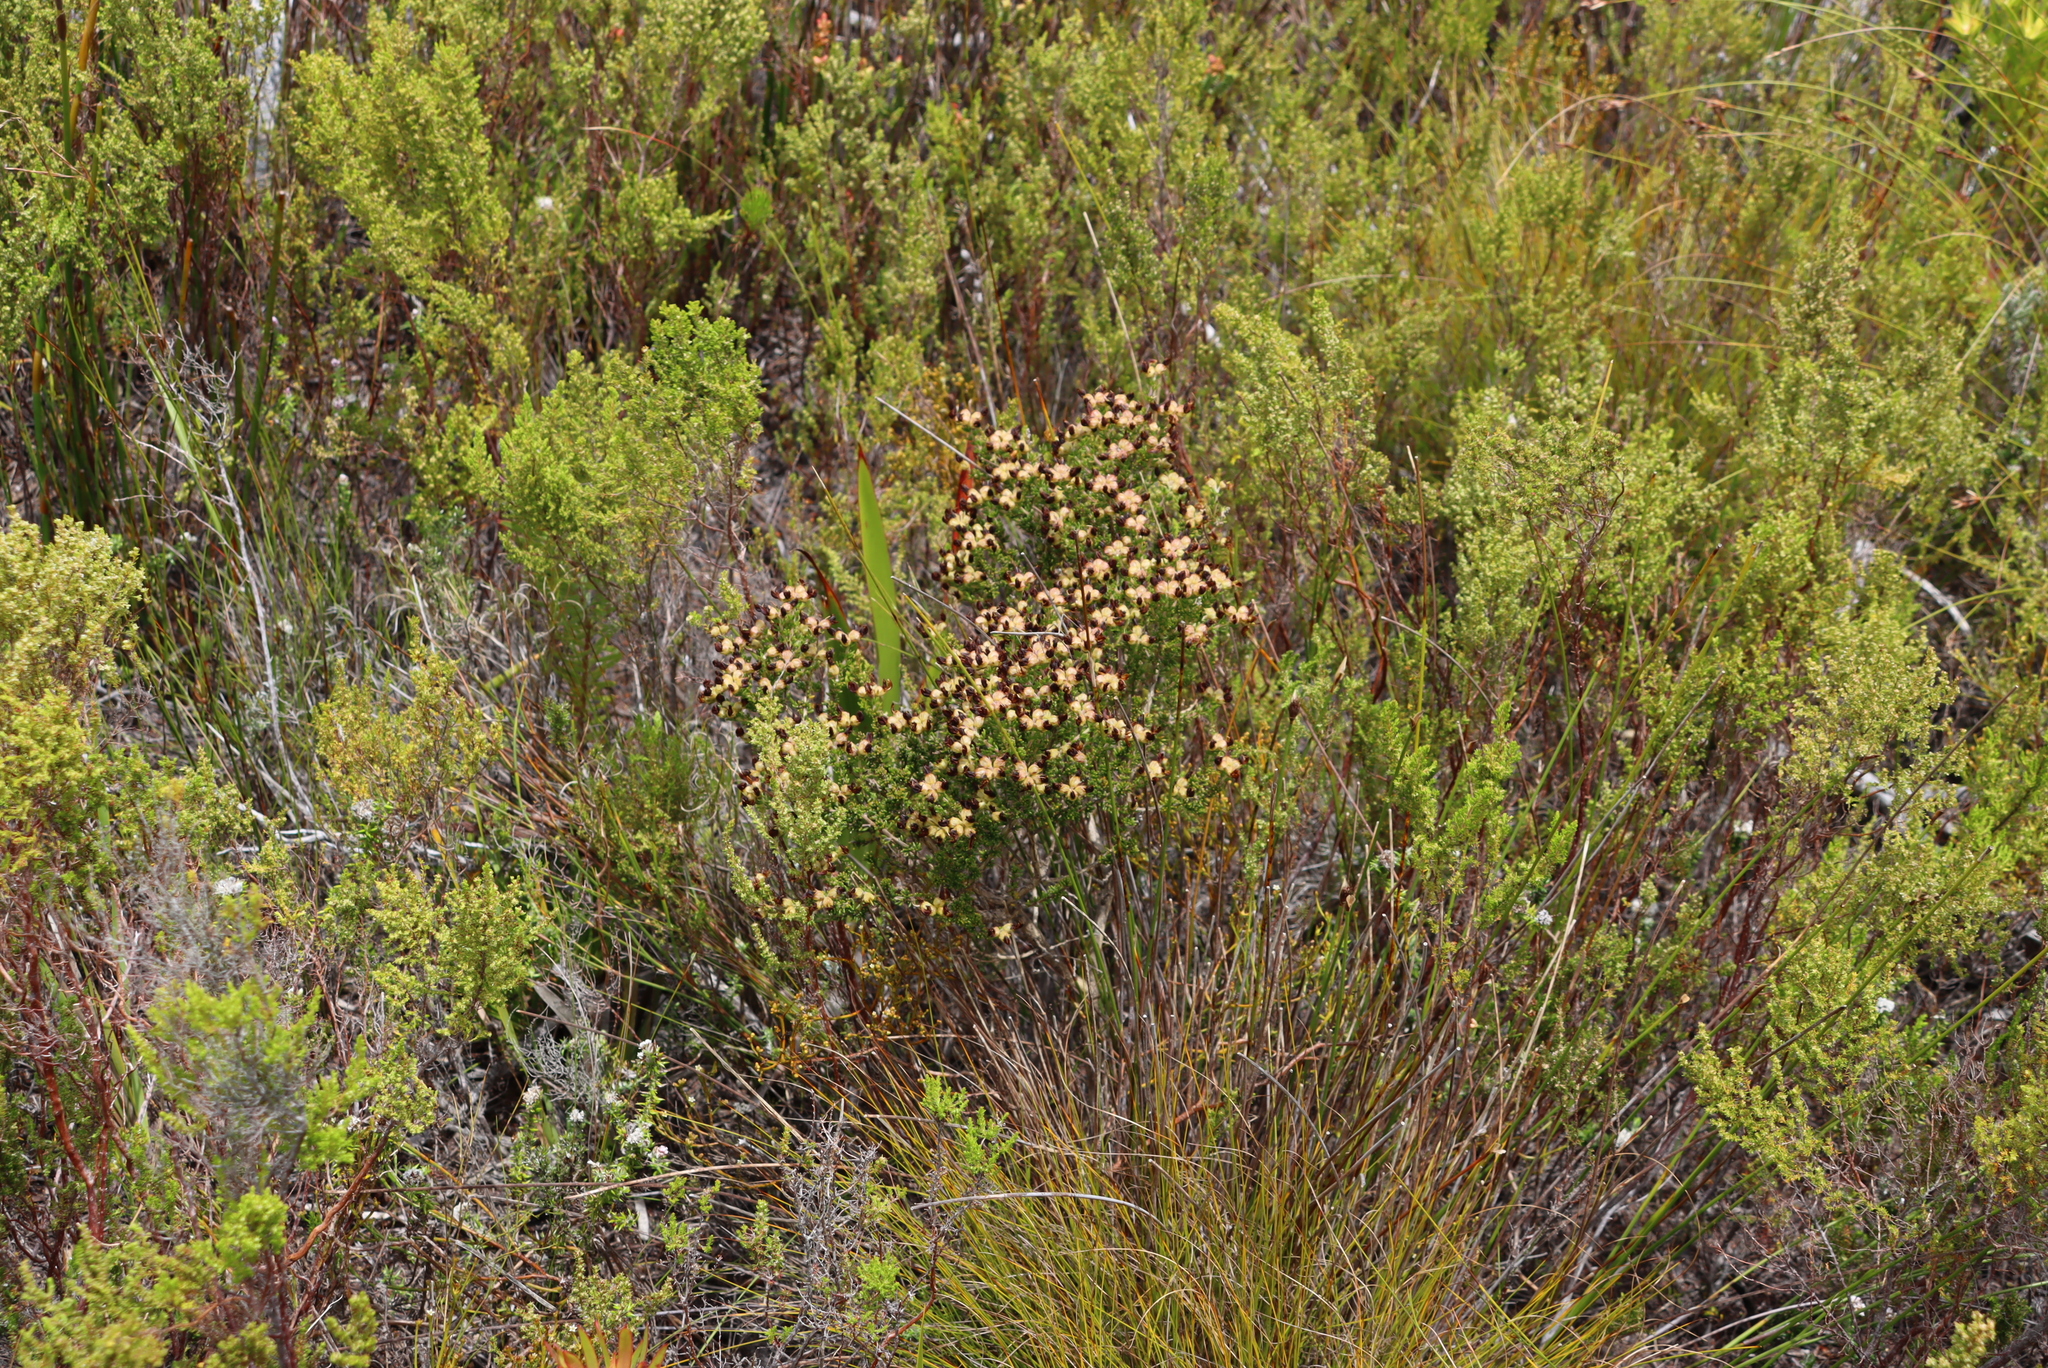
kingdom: Plantae
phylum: Tracheophyta
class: Magnoliopsida
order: Fabales
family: Fabaceae
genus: Aspalathus
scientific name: Aspalathus carnosa
